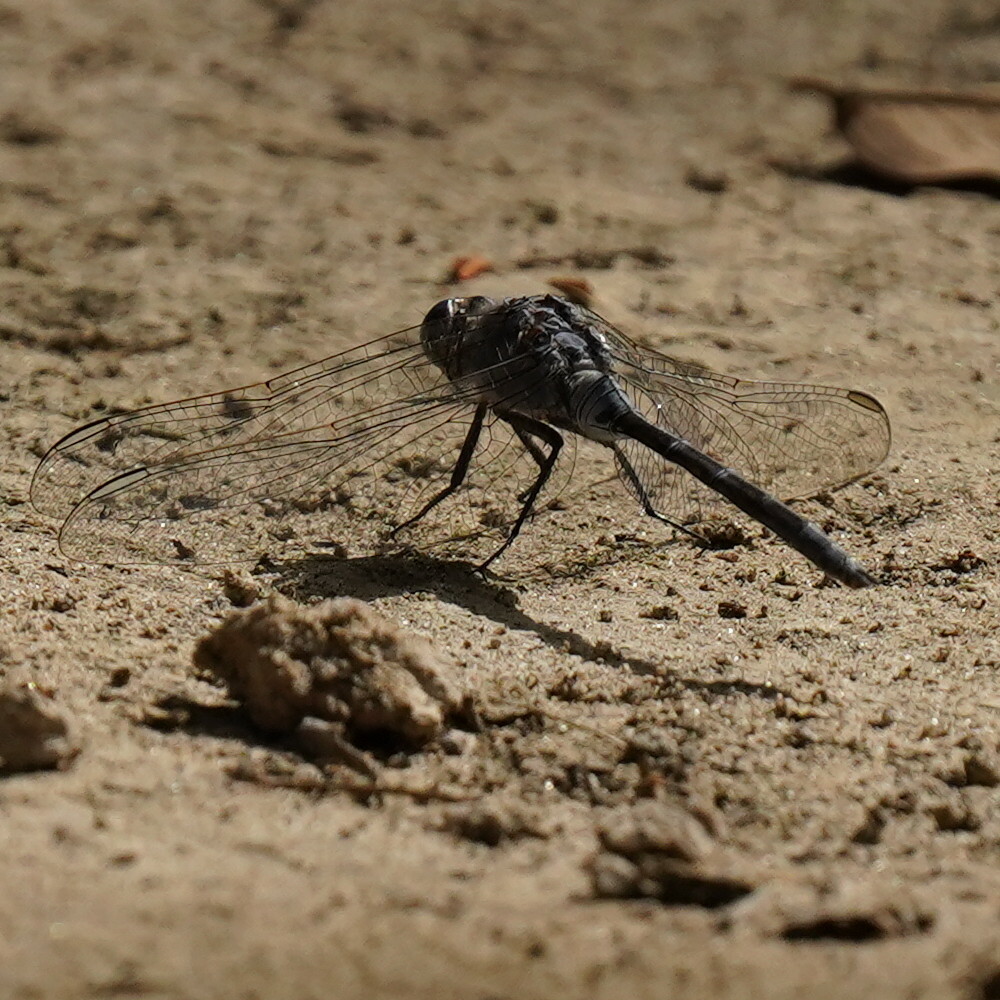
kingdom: Animalia
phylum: Arthropoda
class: Insecta
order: Odonata
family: Libellulidae
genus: Orthetrum
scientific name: Orthetrum trinacria
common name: Long skimmer
